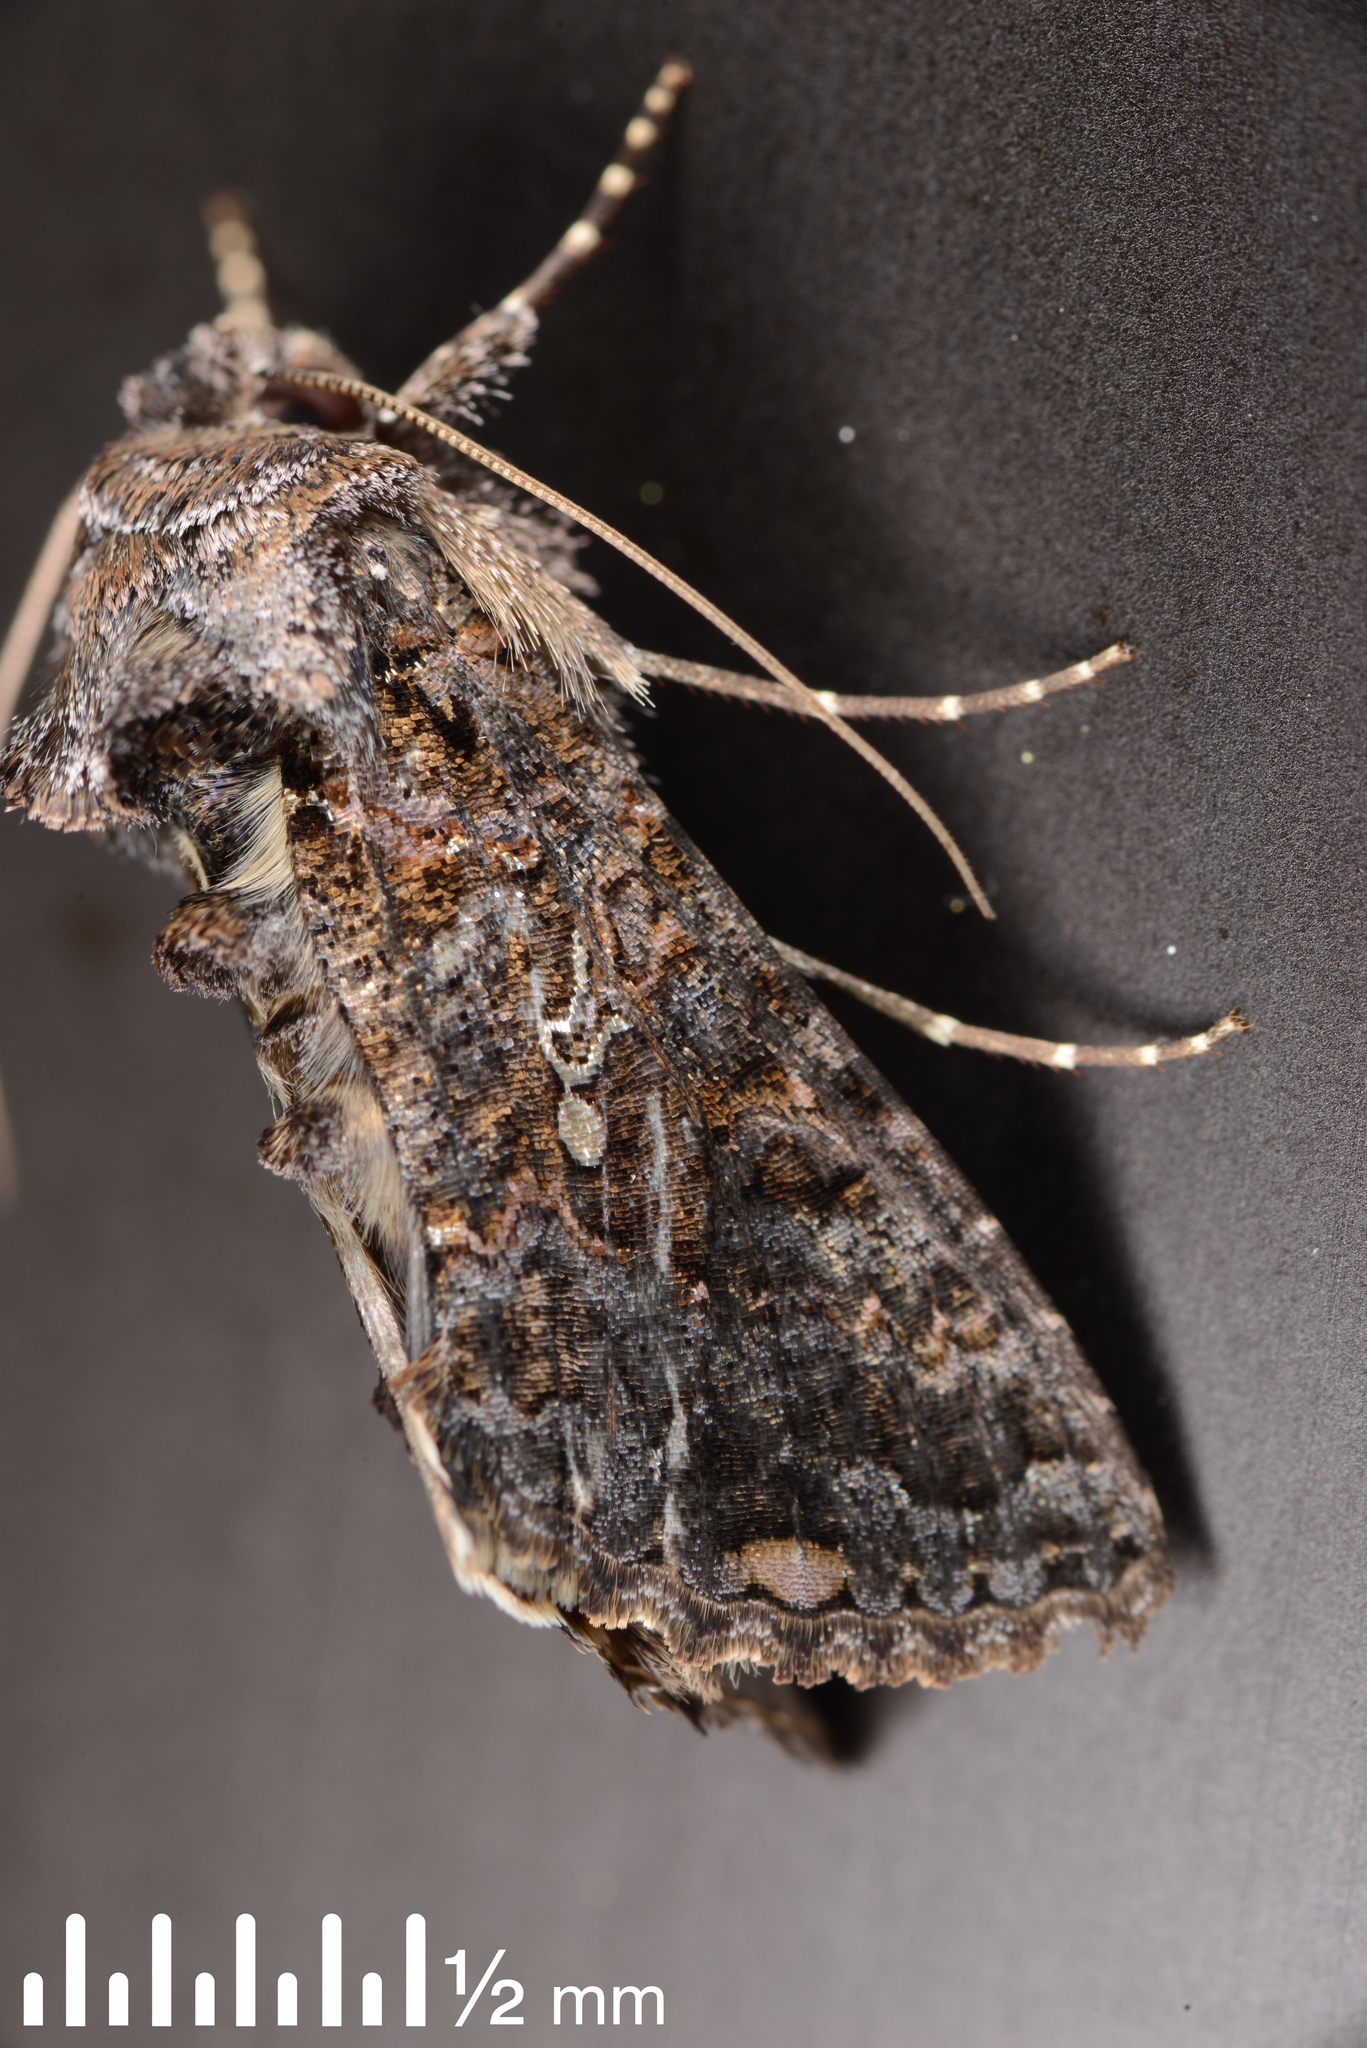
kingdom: Animalia
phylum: Arthropoda
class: Insecta
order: Lepidoptera
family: Noctuidae
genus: Ctenoplusia
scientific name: Ctenoplusia limbirena
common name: Scar bank gem
